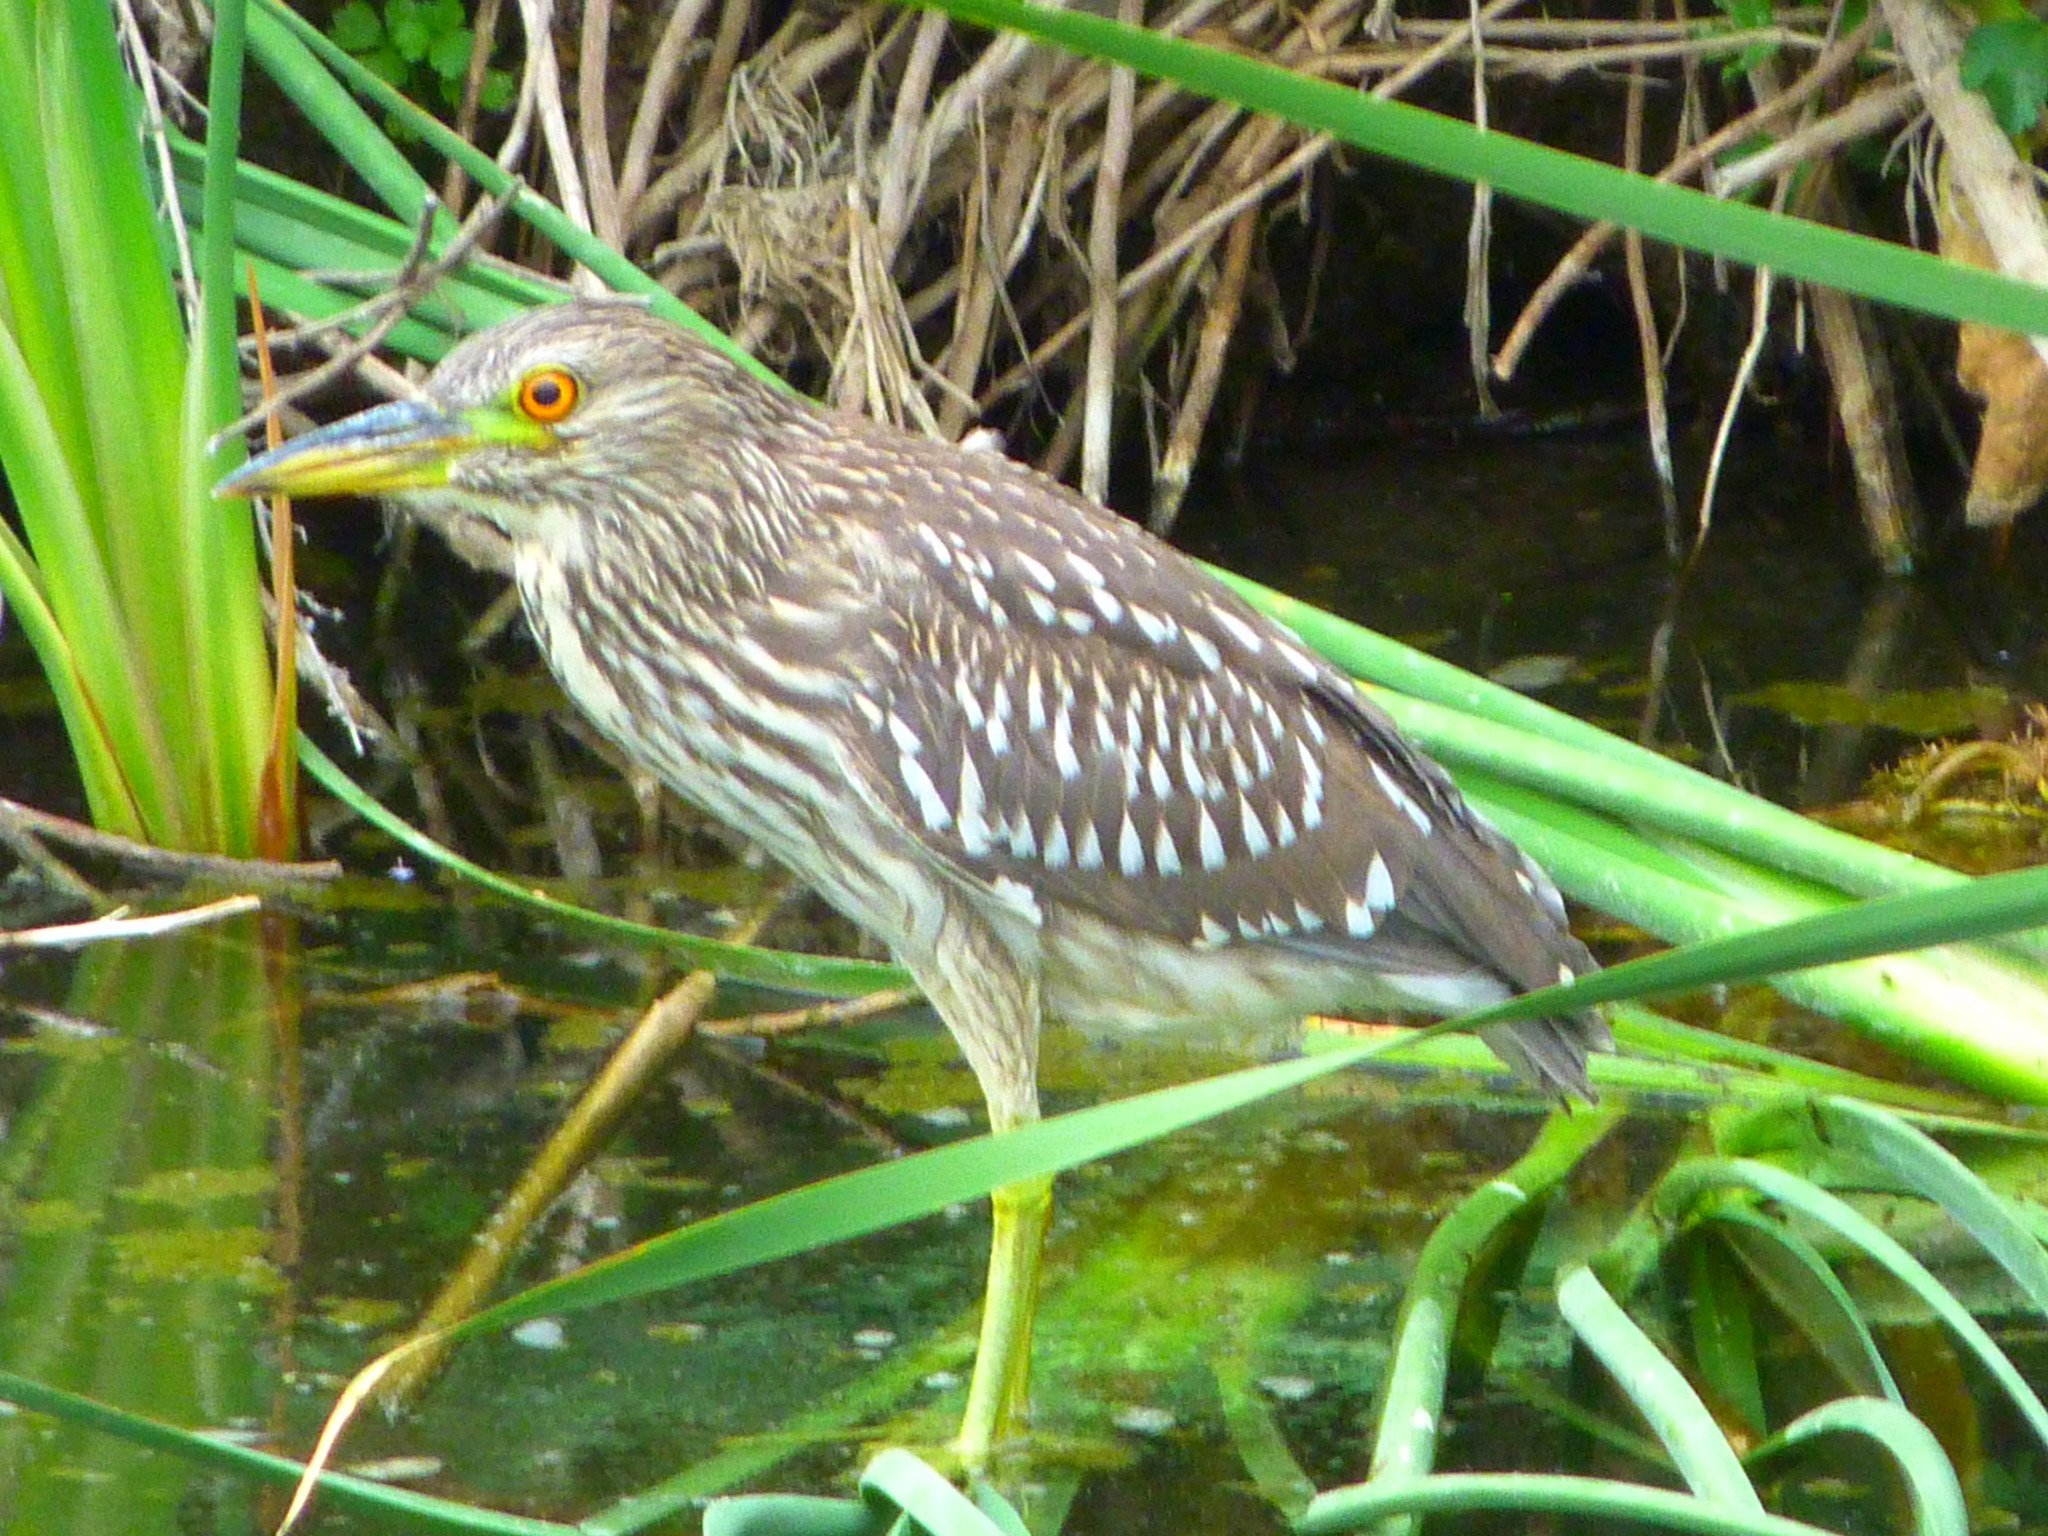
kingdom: Animalia
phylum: Chordata
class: Aves
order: Pelecaniformes
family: Ardeidae
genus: Nycticorax
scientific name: Nycticorax nycticorax
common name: Black-crowned night heron
